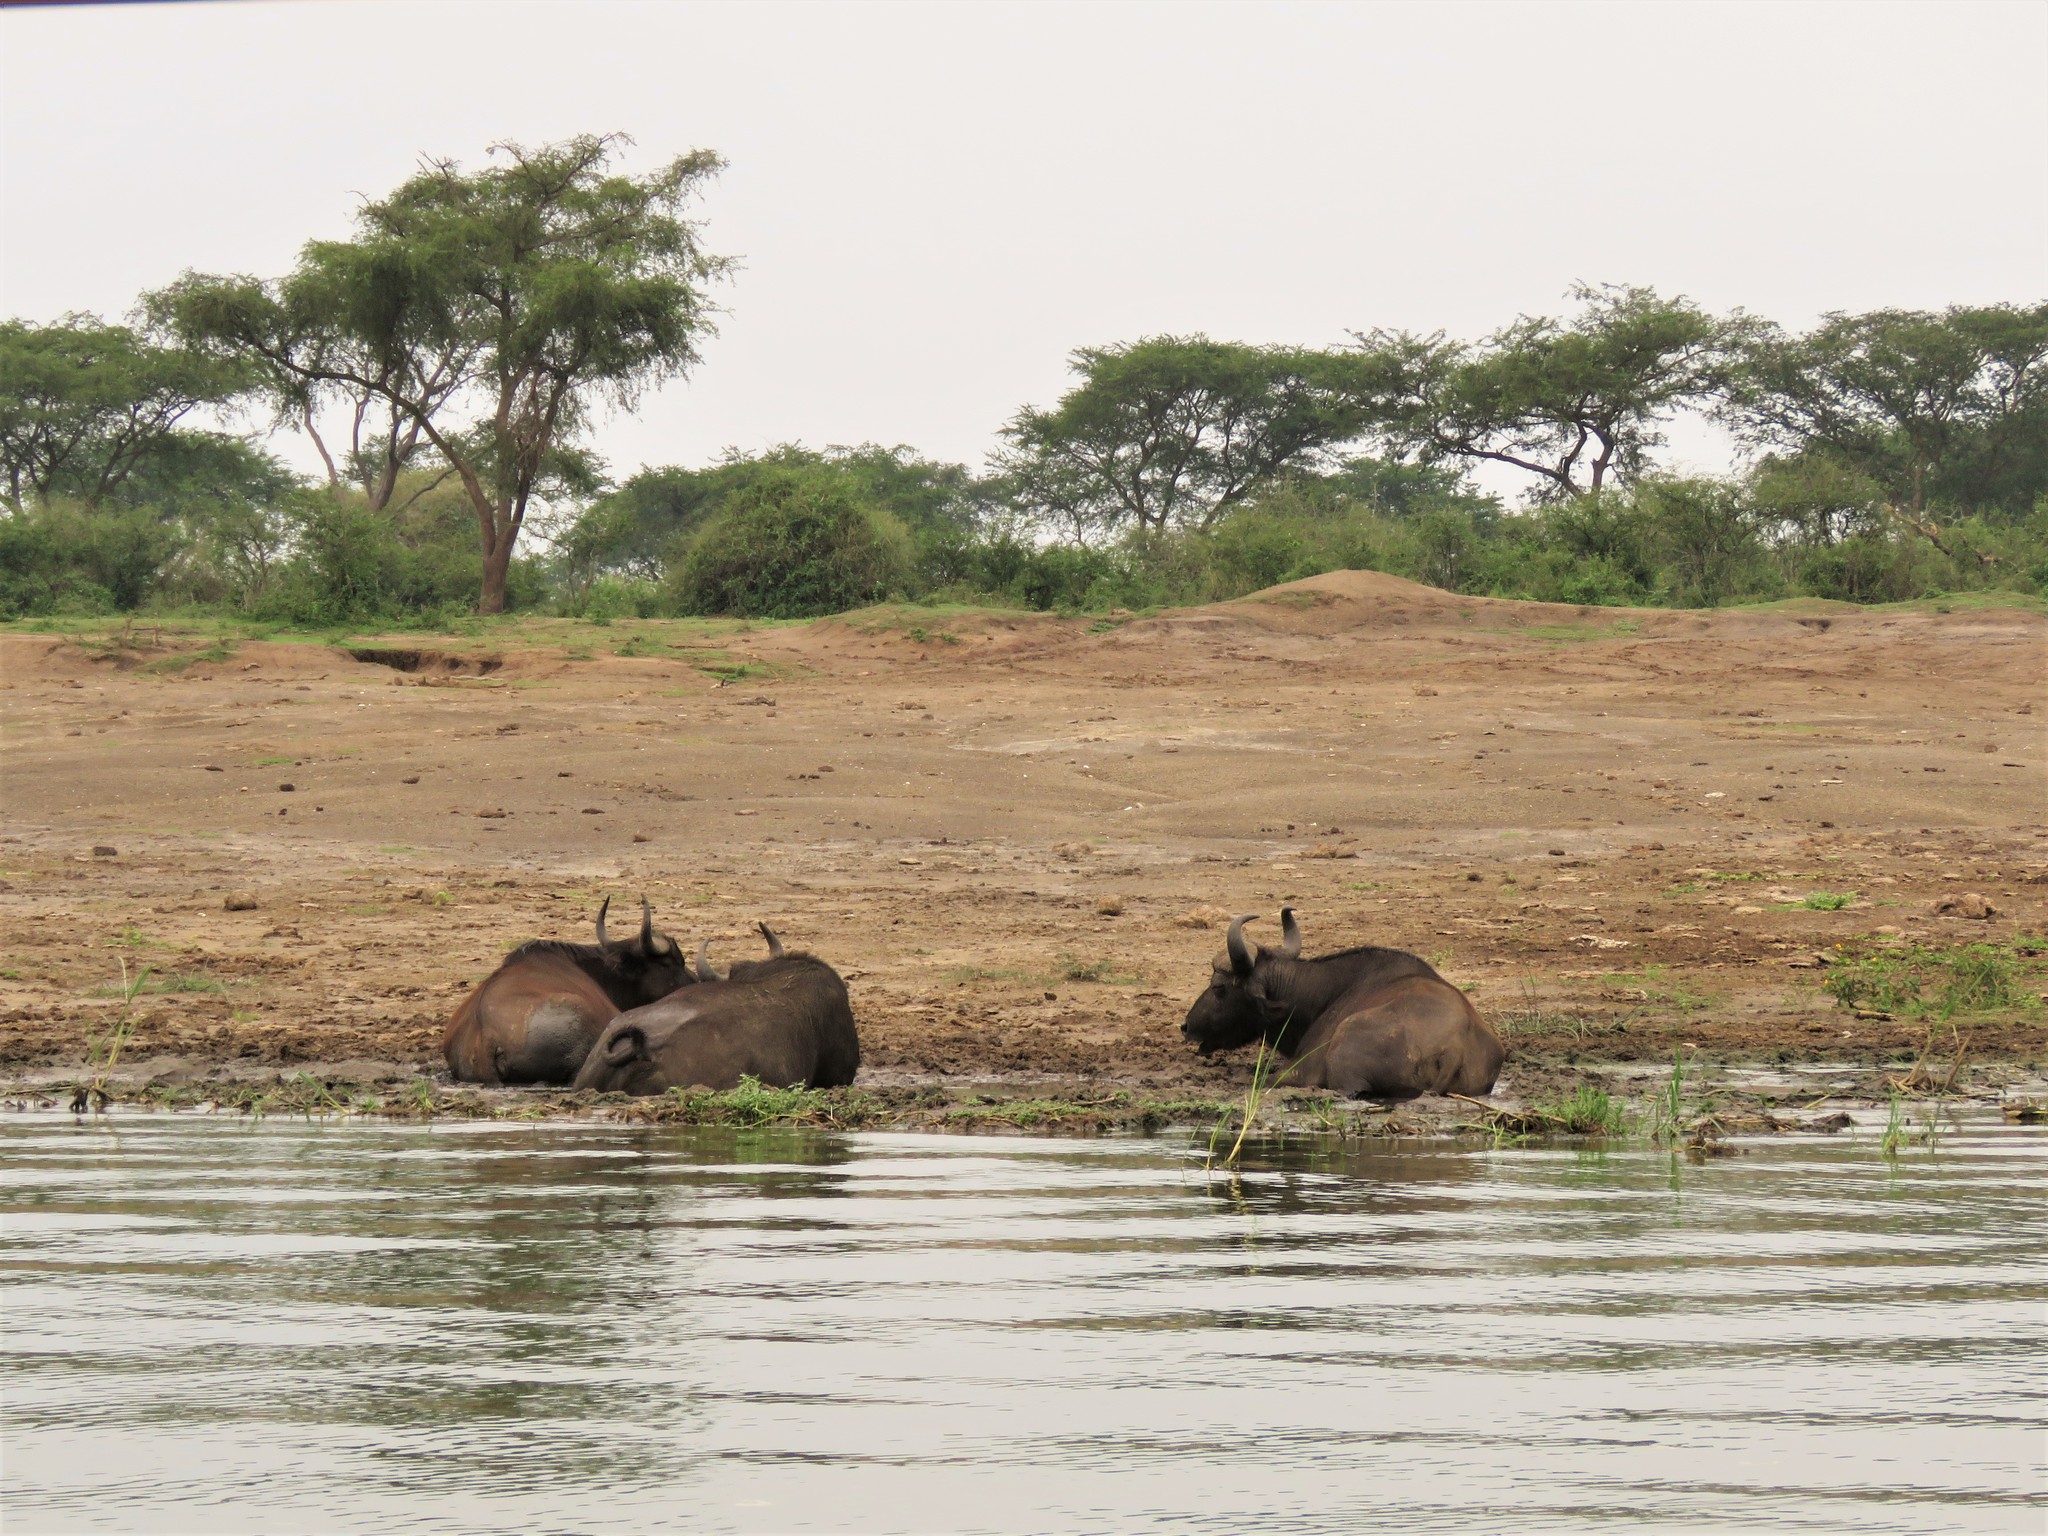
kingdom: Animalia
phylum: Chordata
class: Mammalia
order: Artiodactyla
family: Bovidae
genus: Syncerus
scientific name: Syncerus caffer
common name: African buffalo
